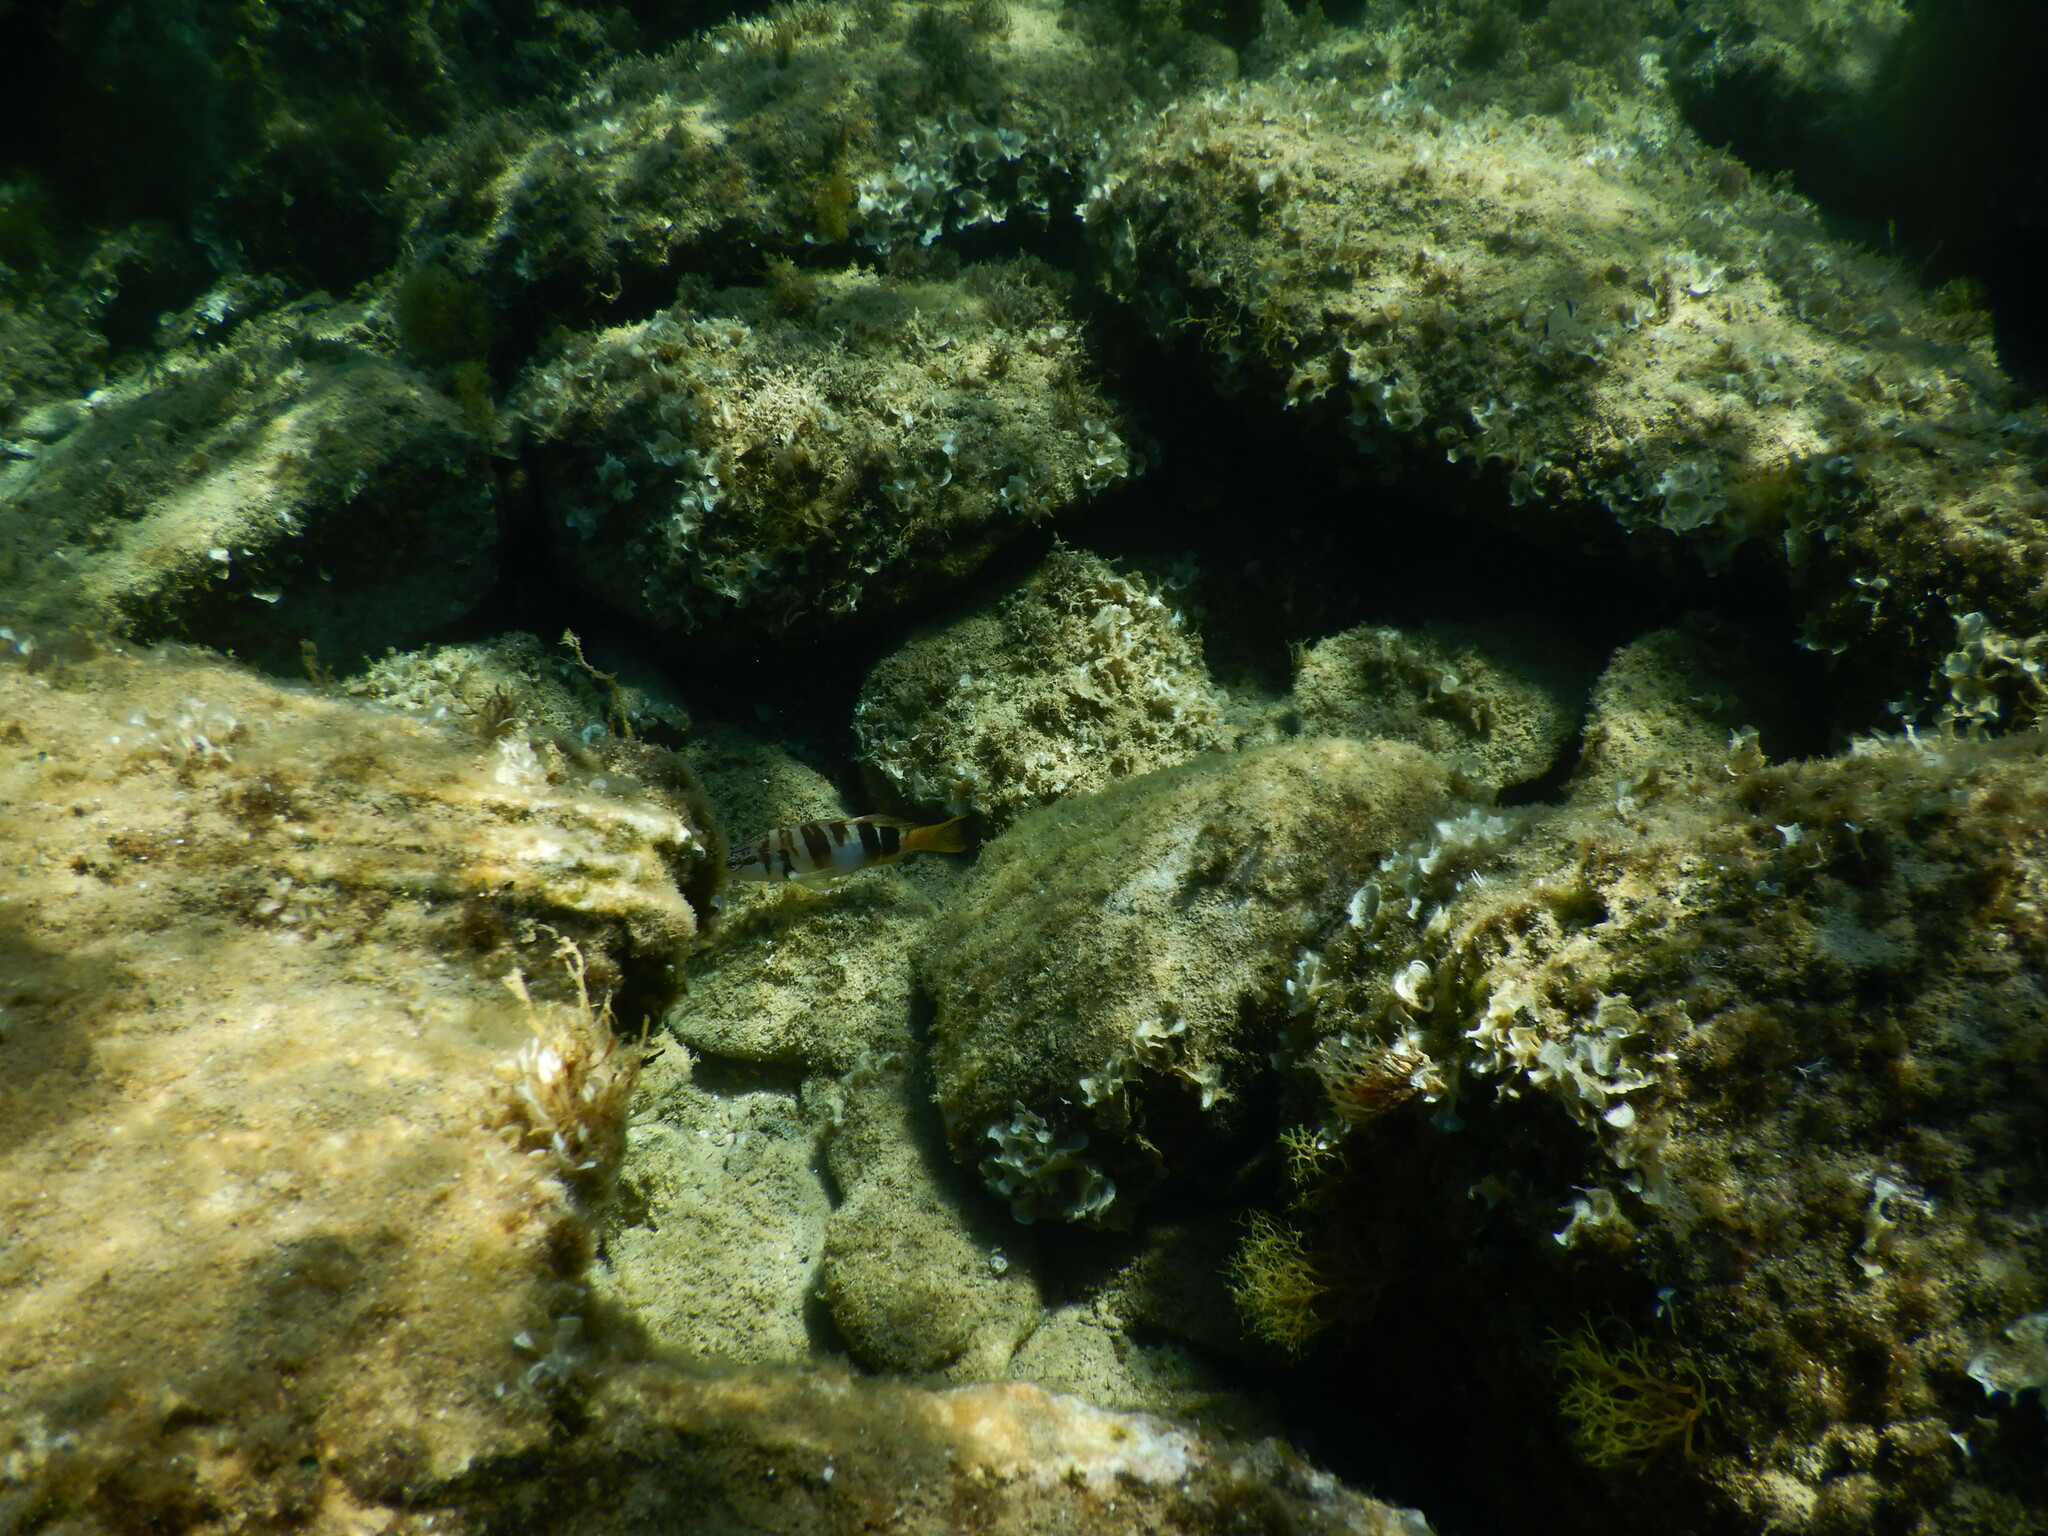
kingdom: Animalia
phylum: Chordata
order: Perciformes
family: Serranidae
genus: Serranus
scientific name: Serranus scriba
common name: Painted comber
